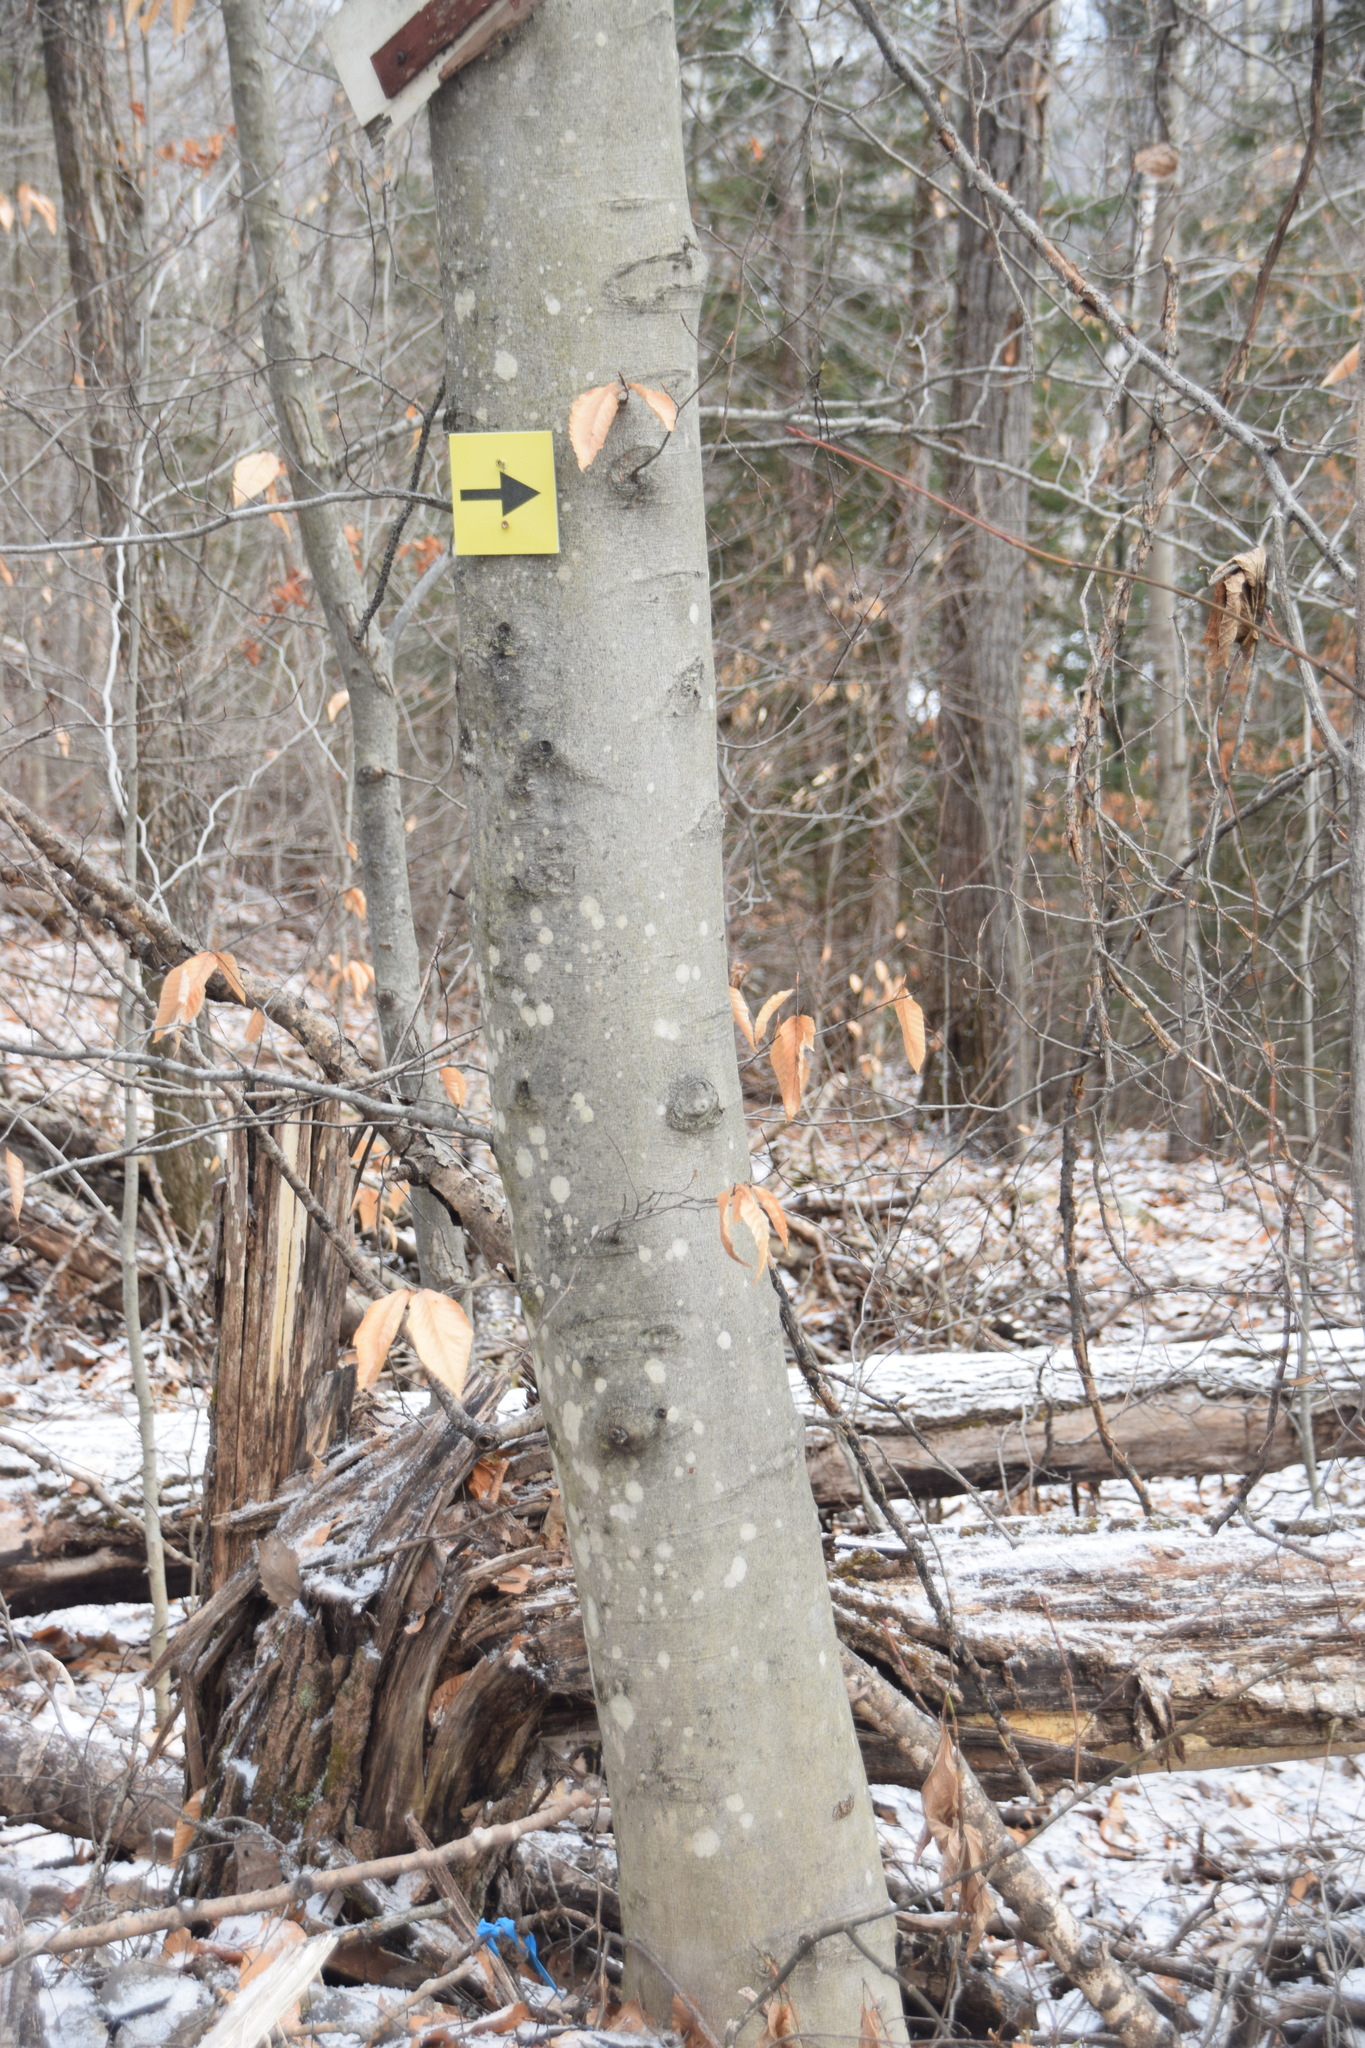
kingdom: Plantae
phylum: Tracheophyta
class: Magnoliopsida
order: Fagales
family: Fagaceae
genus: Fagus
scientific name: Fagus grandifolia
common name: American beech
